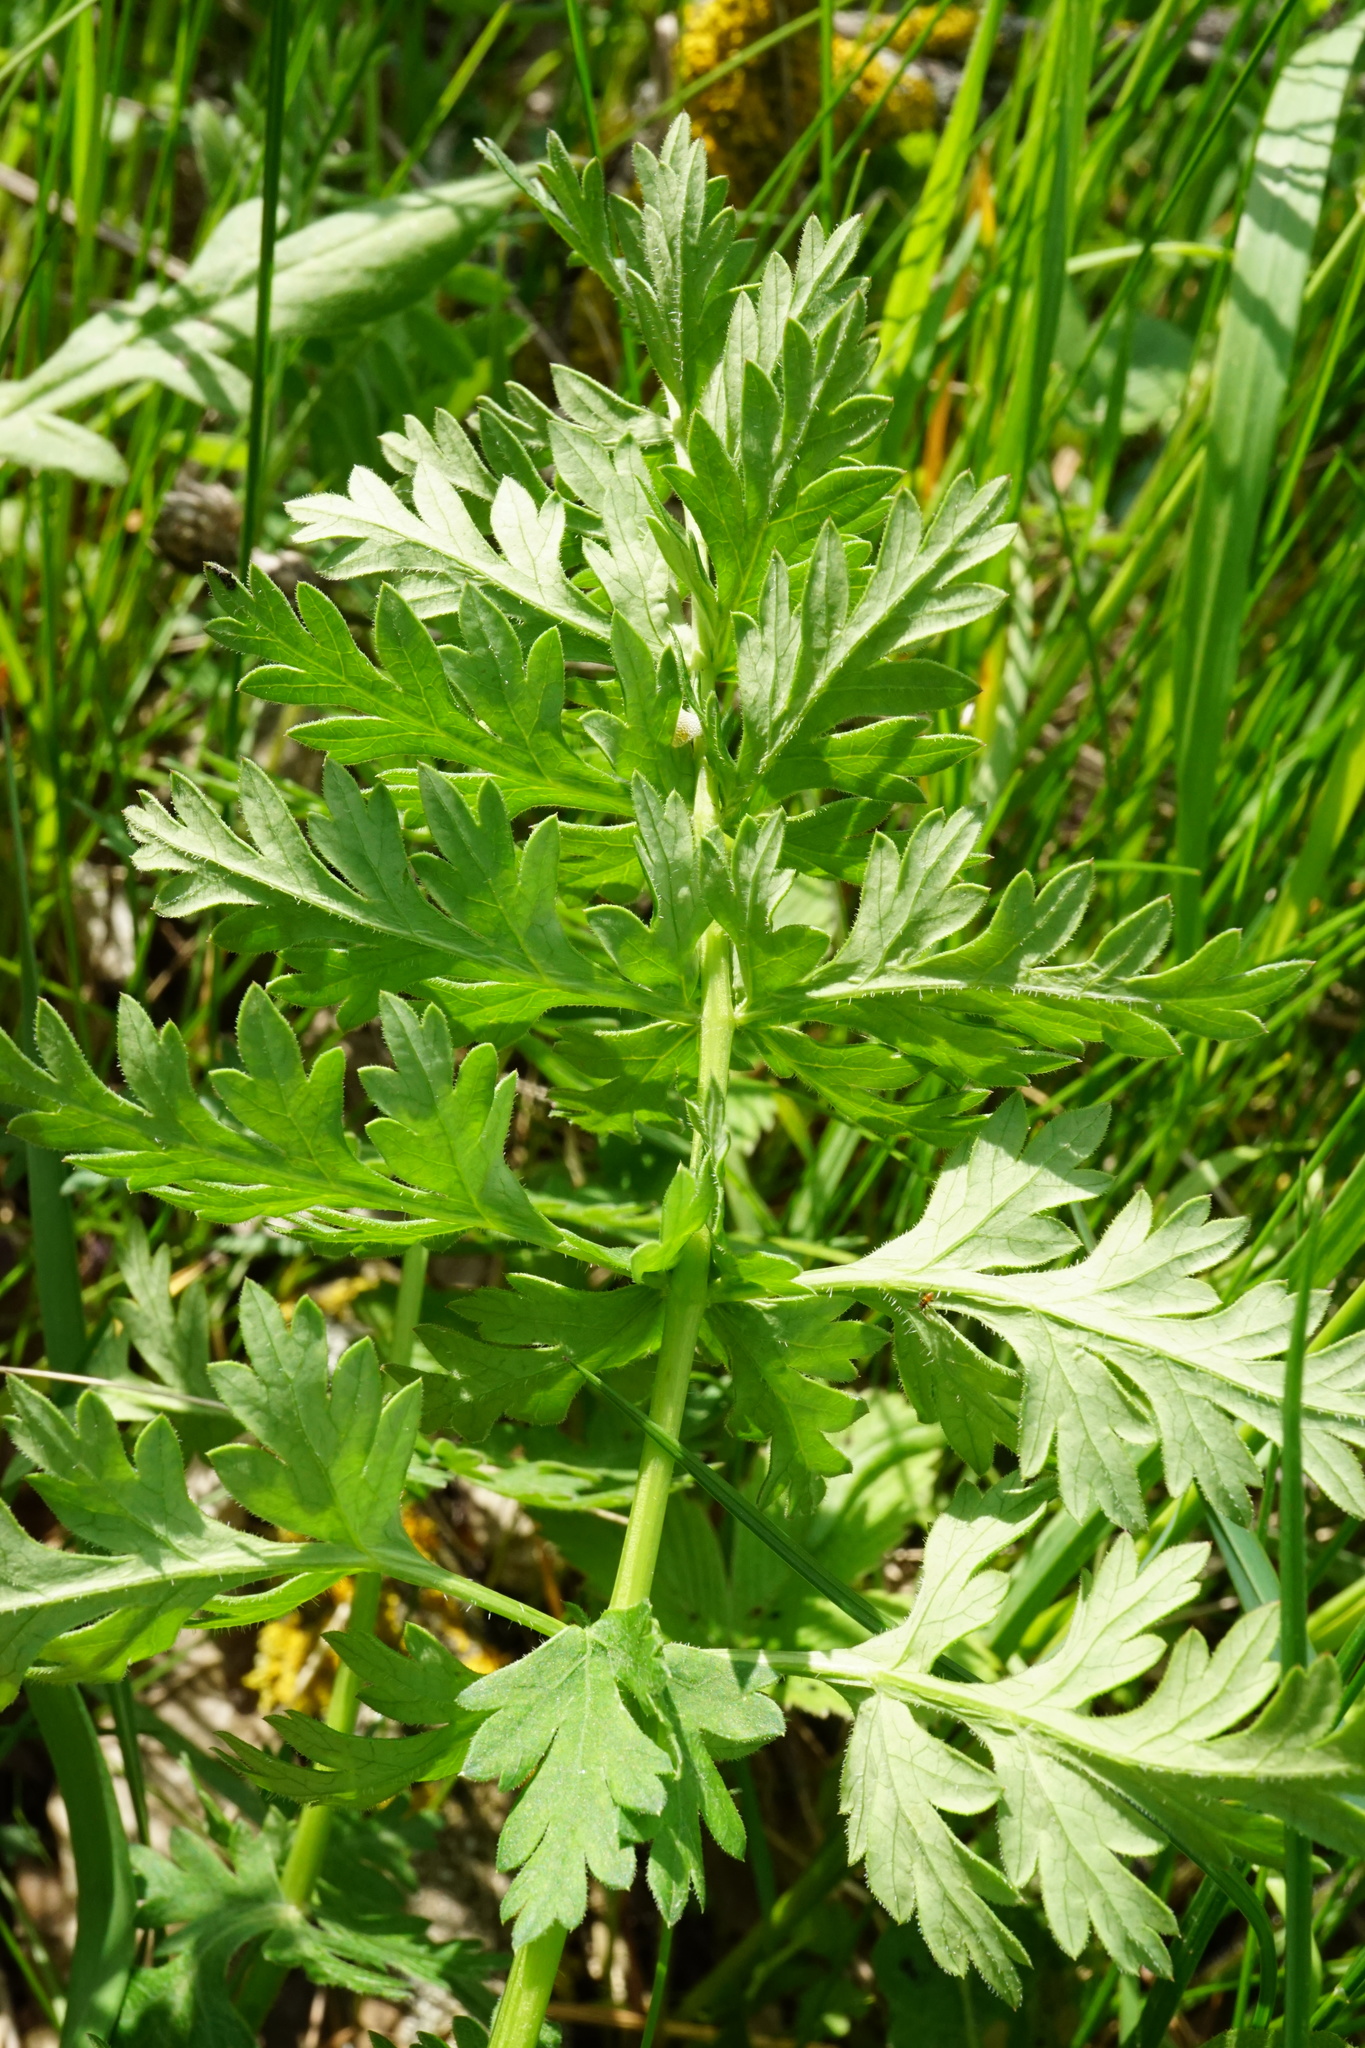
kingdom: Plantae
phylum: Tracheophyta
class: Magnoliopsida
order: Apiales
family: Apiaceae
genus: Seseli
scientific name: Seseli libanotis
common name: Mooncarrot
